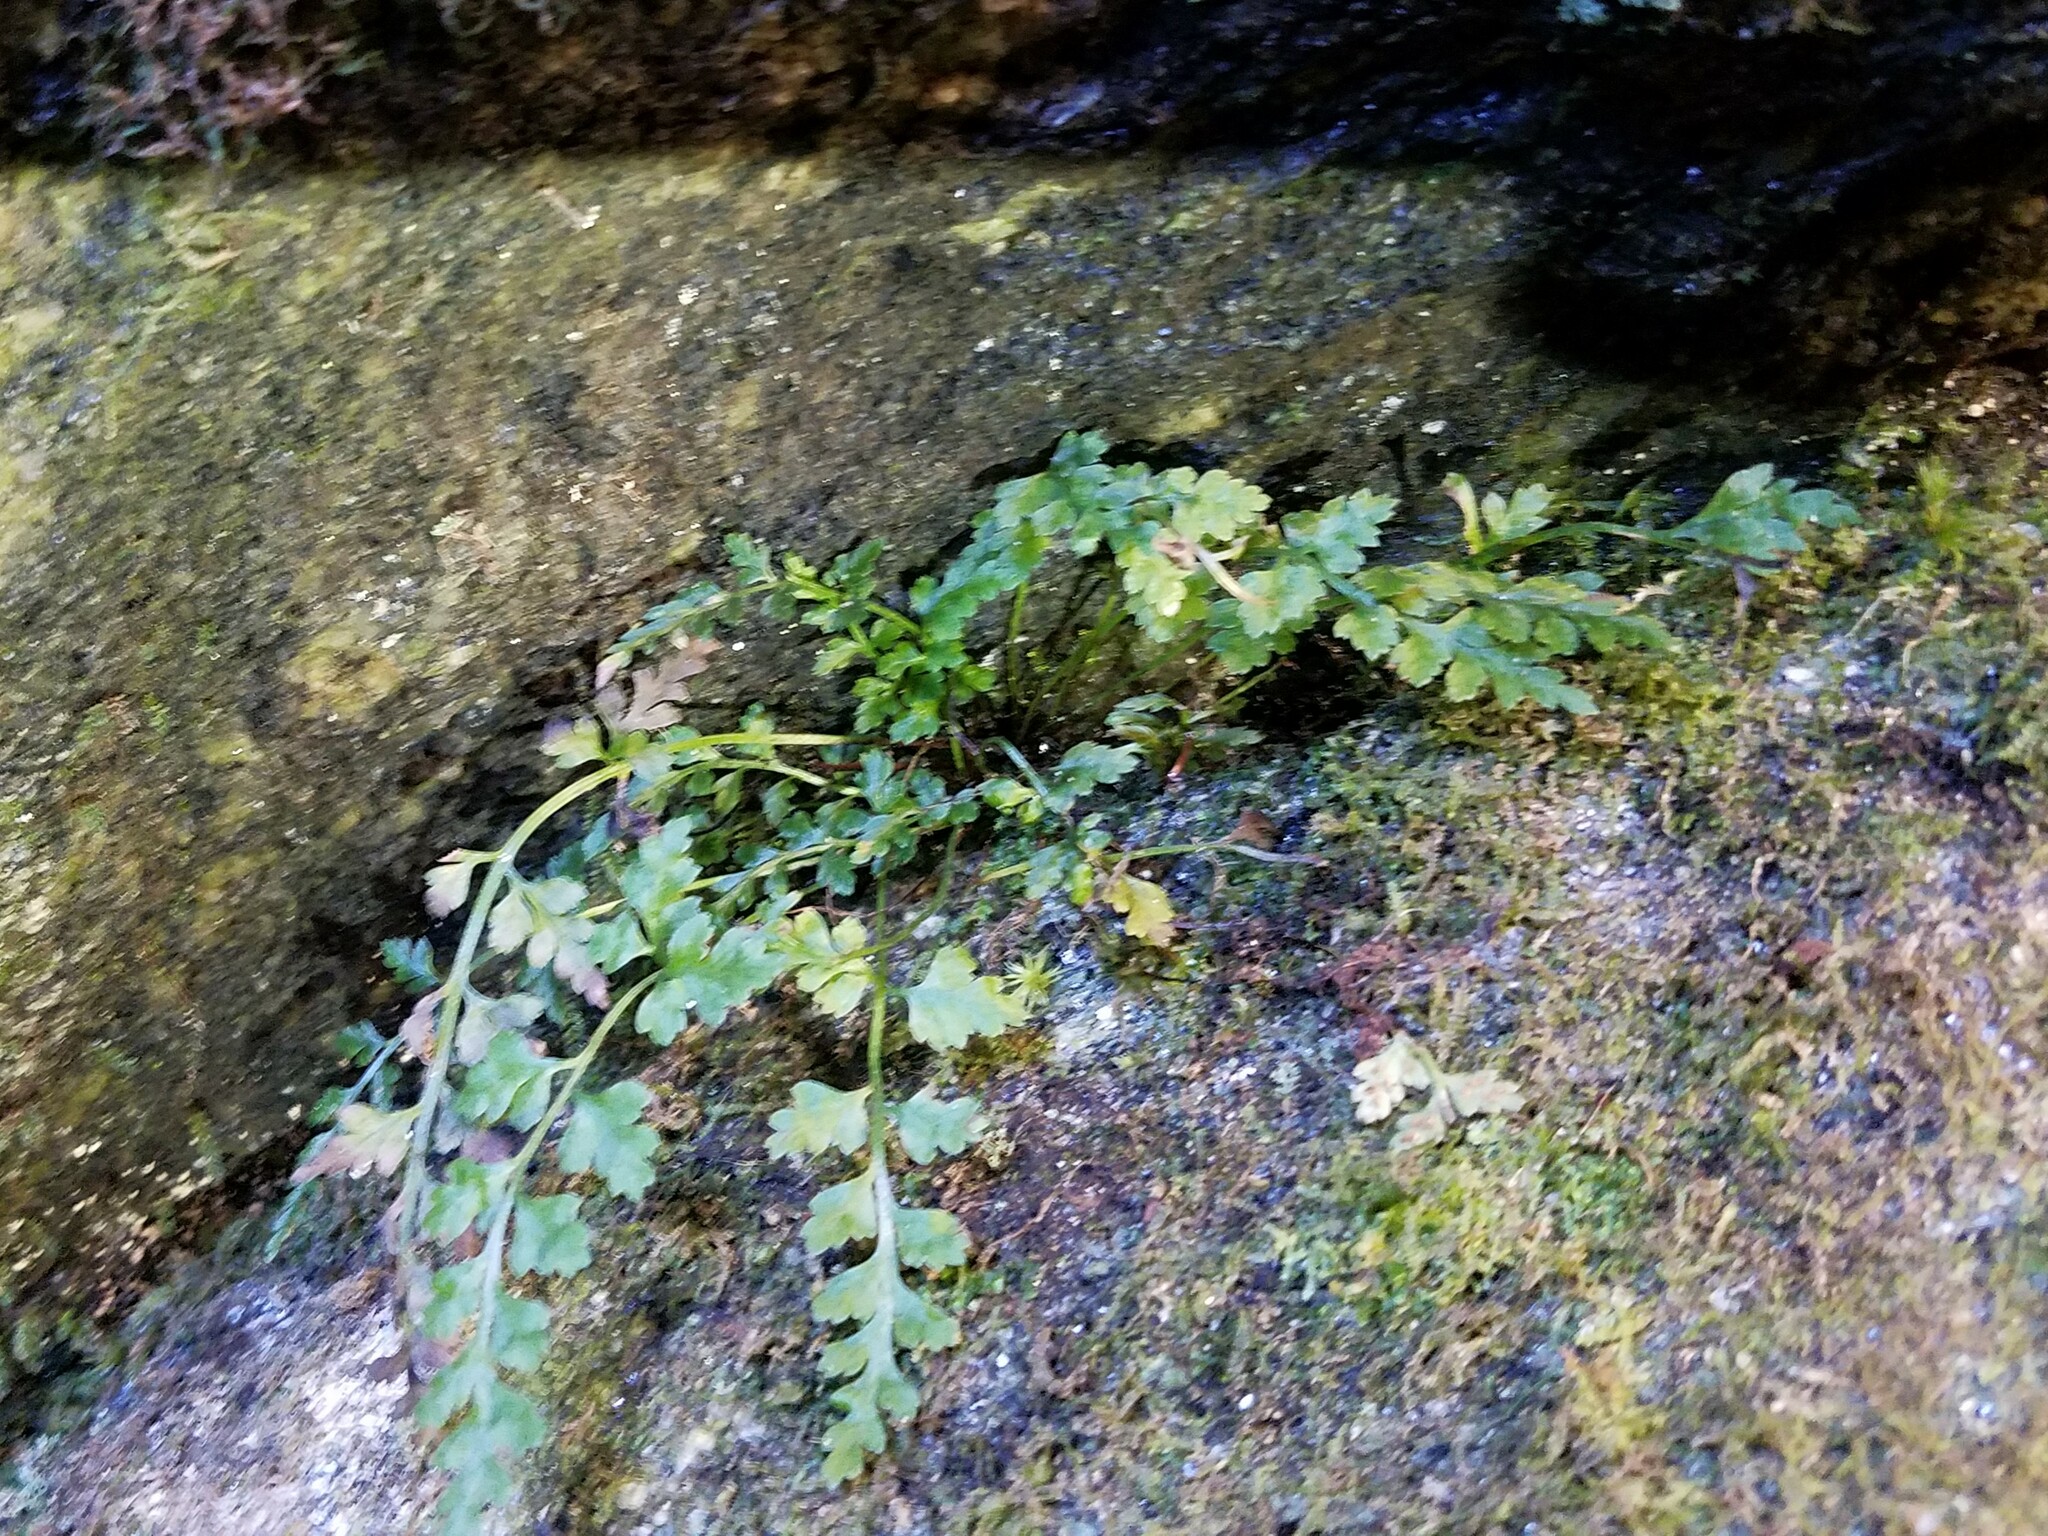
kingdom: Plantae
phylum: Tracheophyta
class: Polypodiopsida
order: Polypodiales
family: Aspleniaceae
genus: Asplenium
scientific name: Asplenium montanum
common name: Mountain spleenwort
